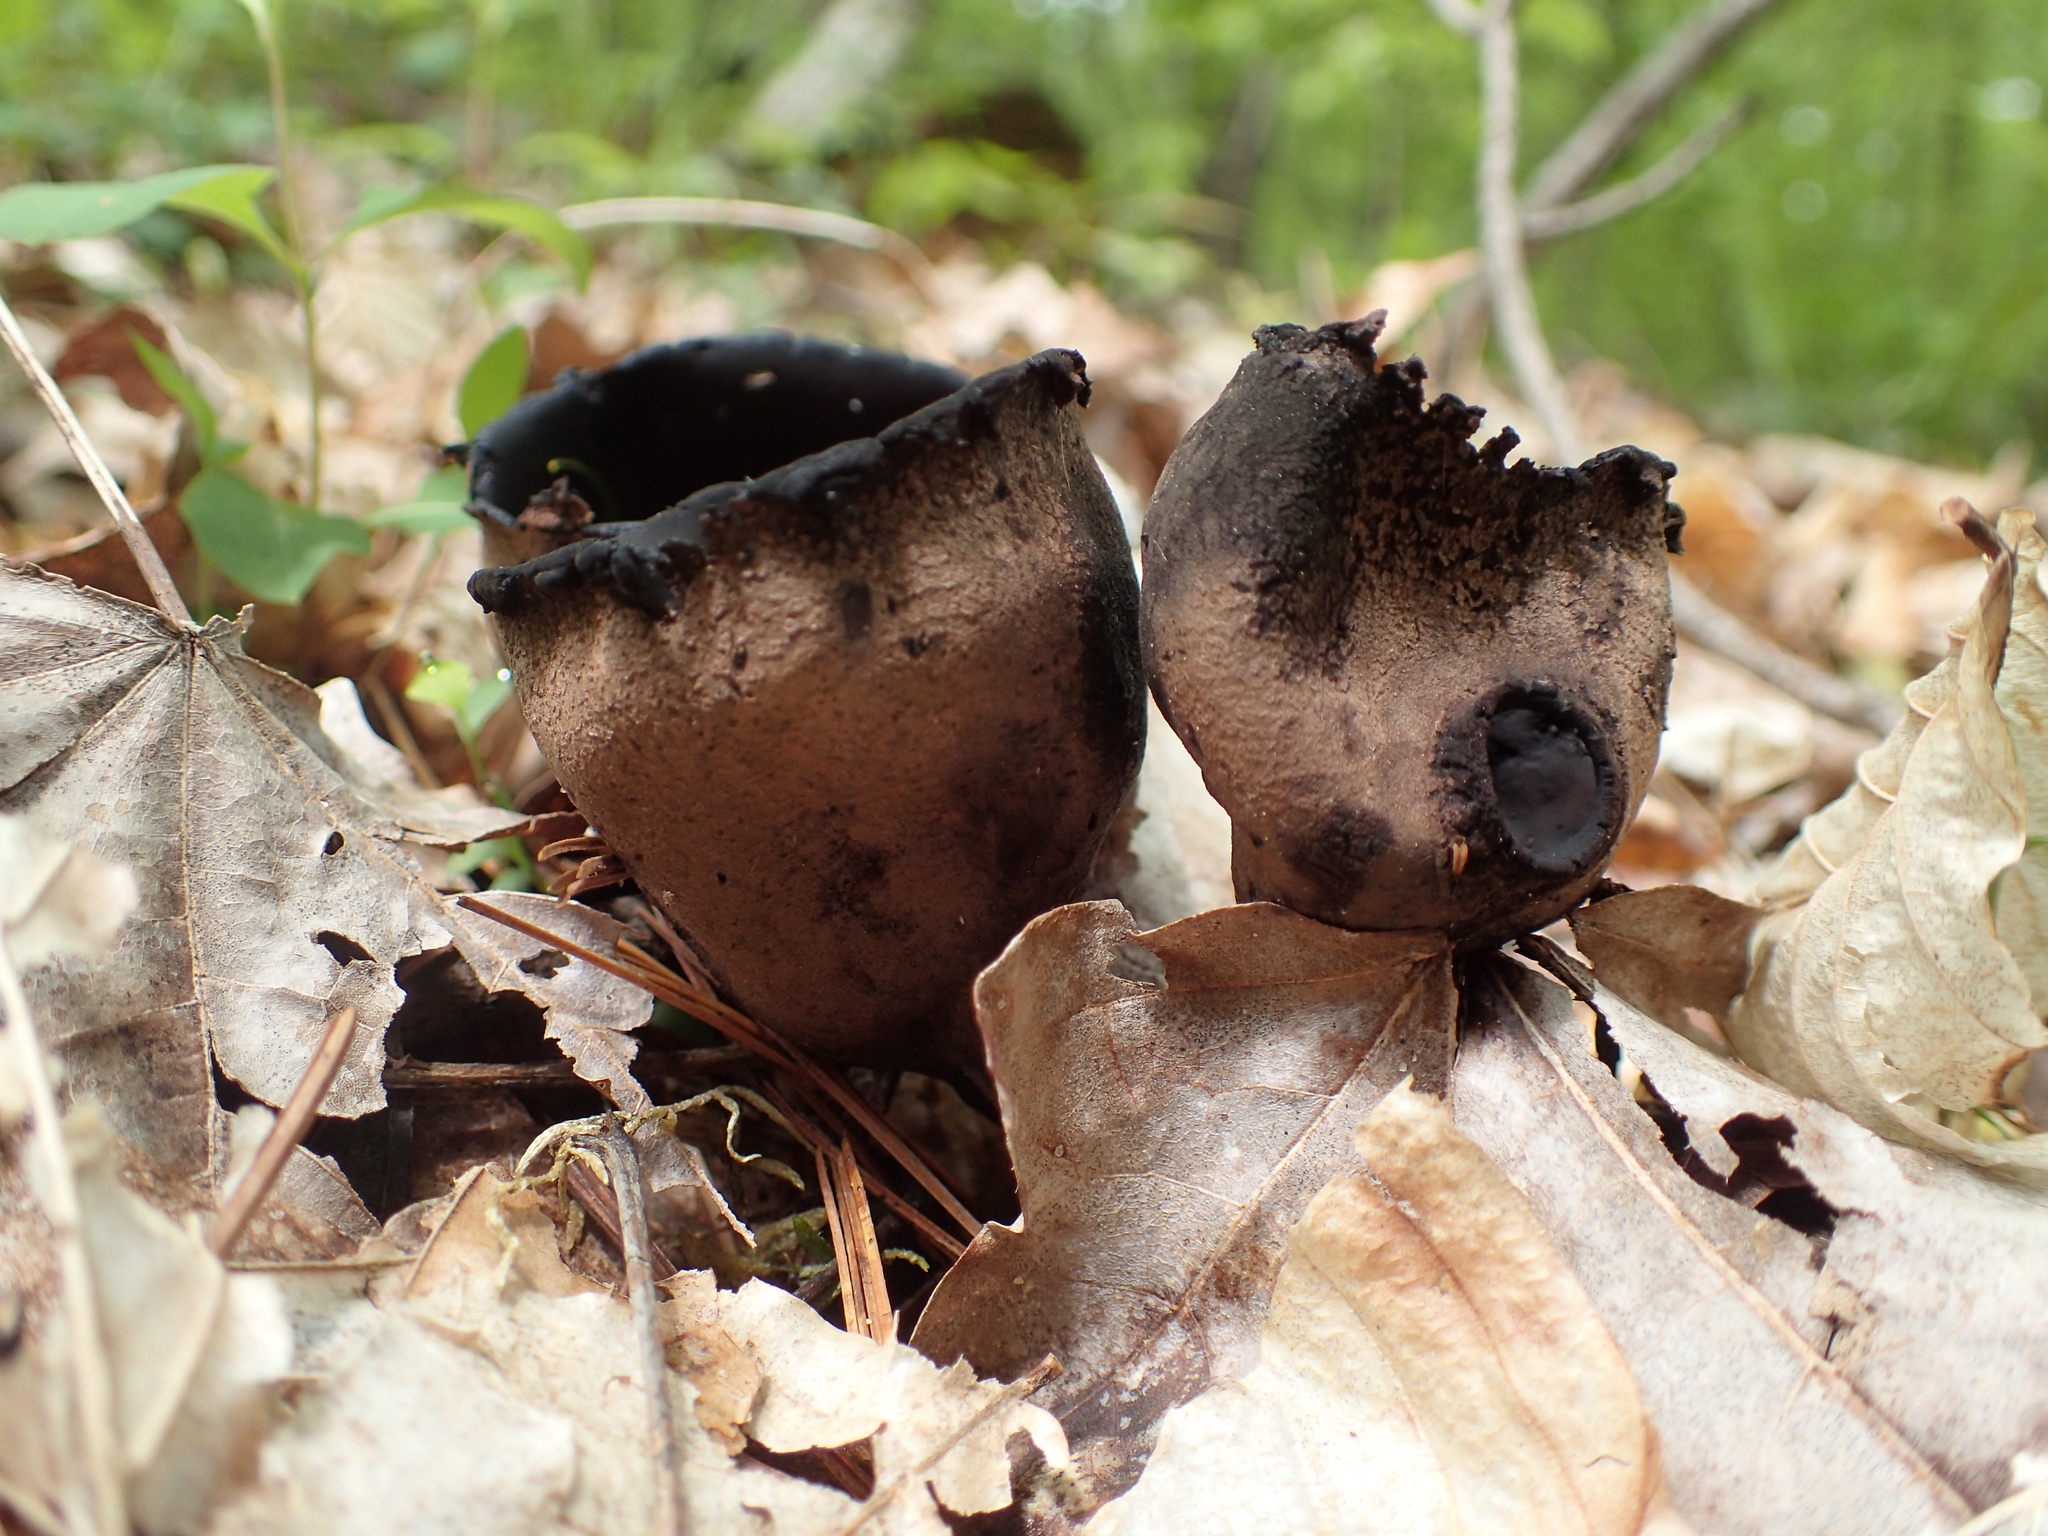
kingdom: Fungi
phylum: Ascomycota
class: Pezizomycetes
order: Pezizales
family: Sarcosomataceae
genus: Urnula
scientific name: Urnula craterium
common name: Devil's urn
